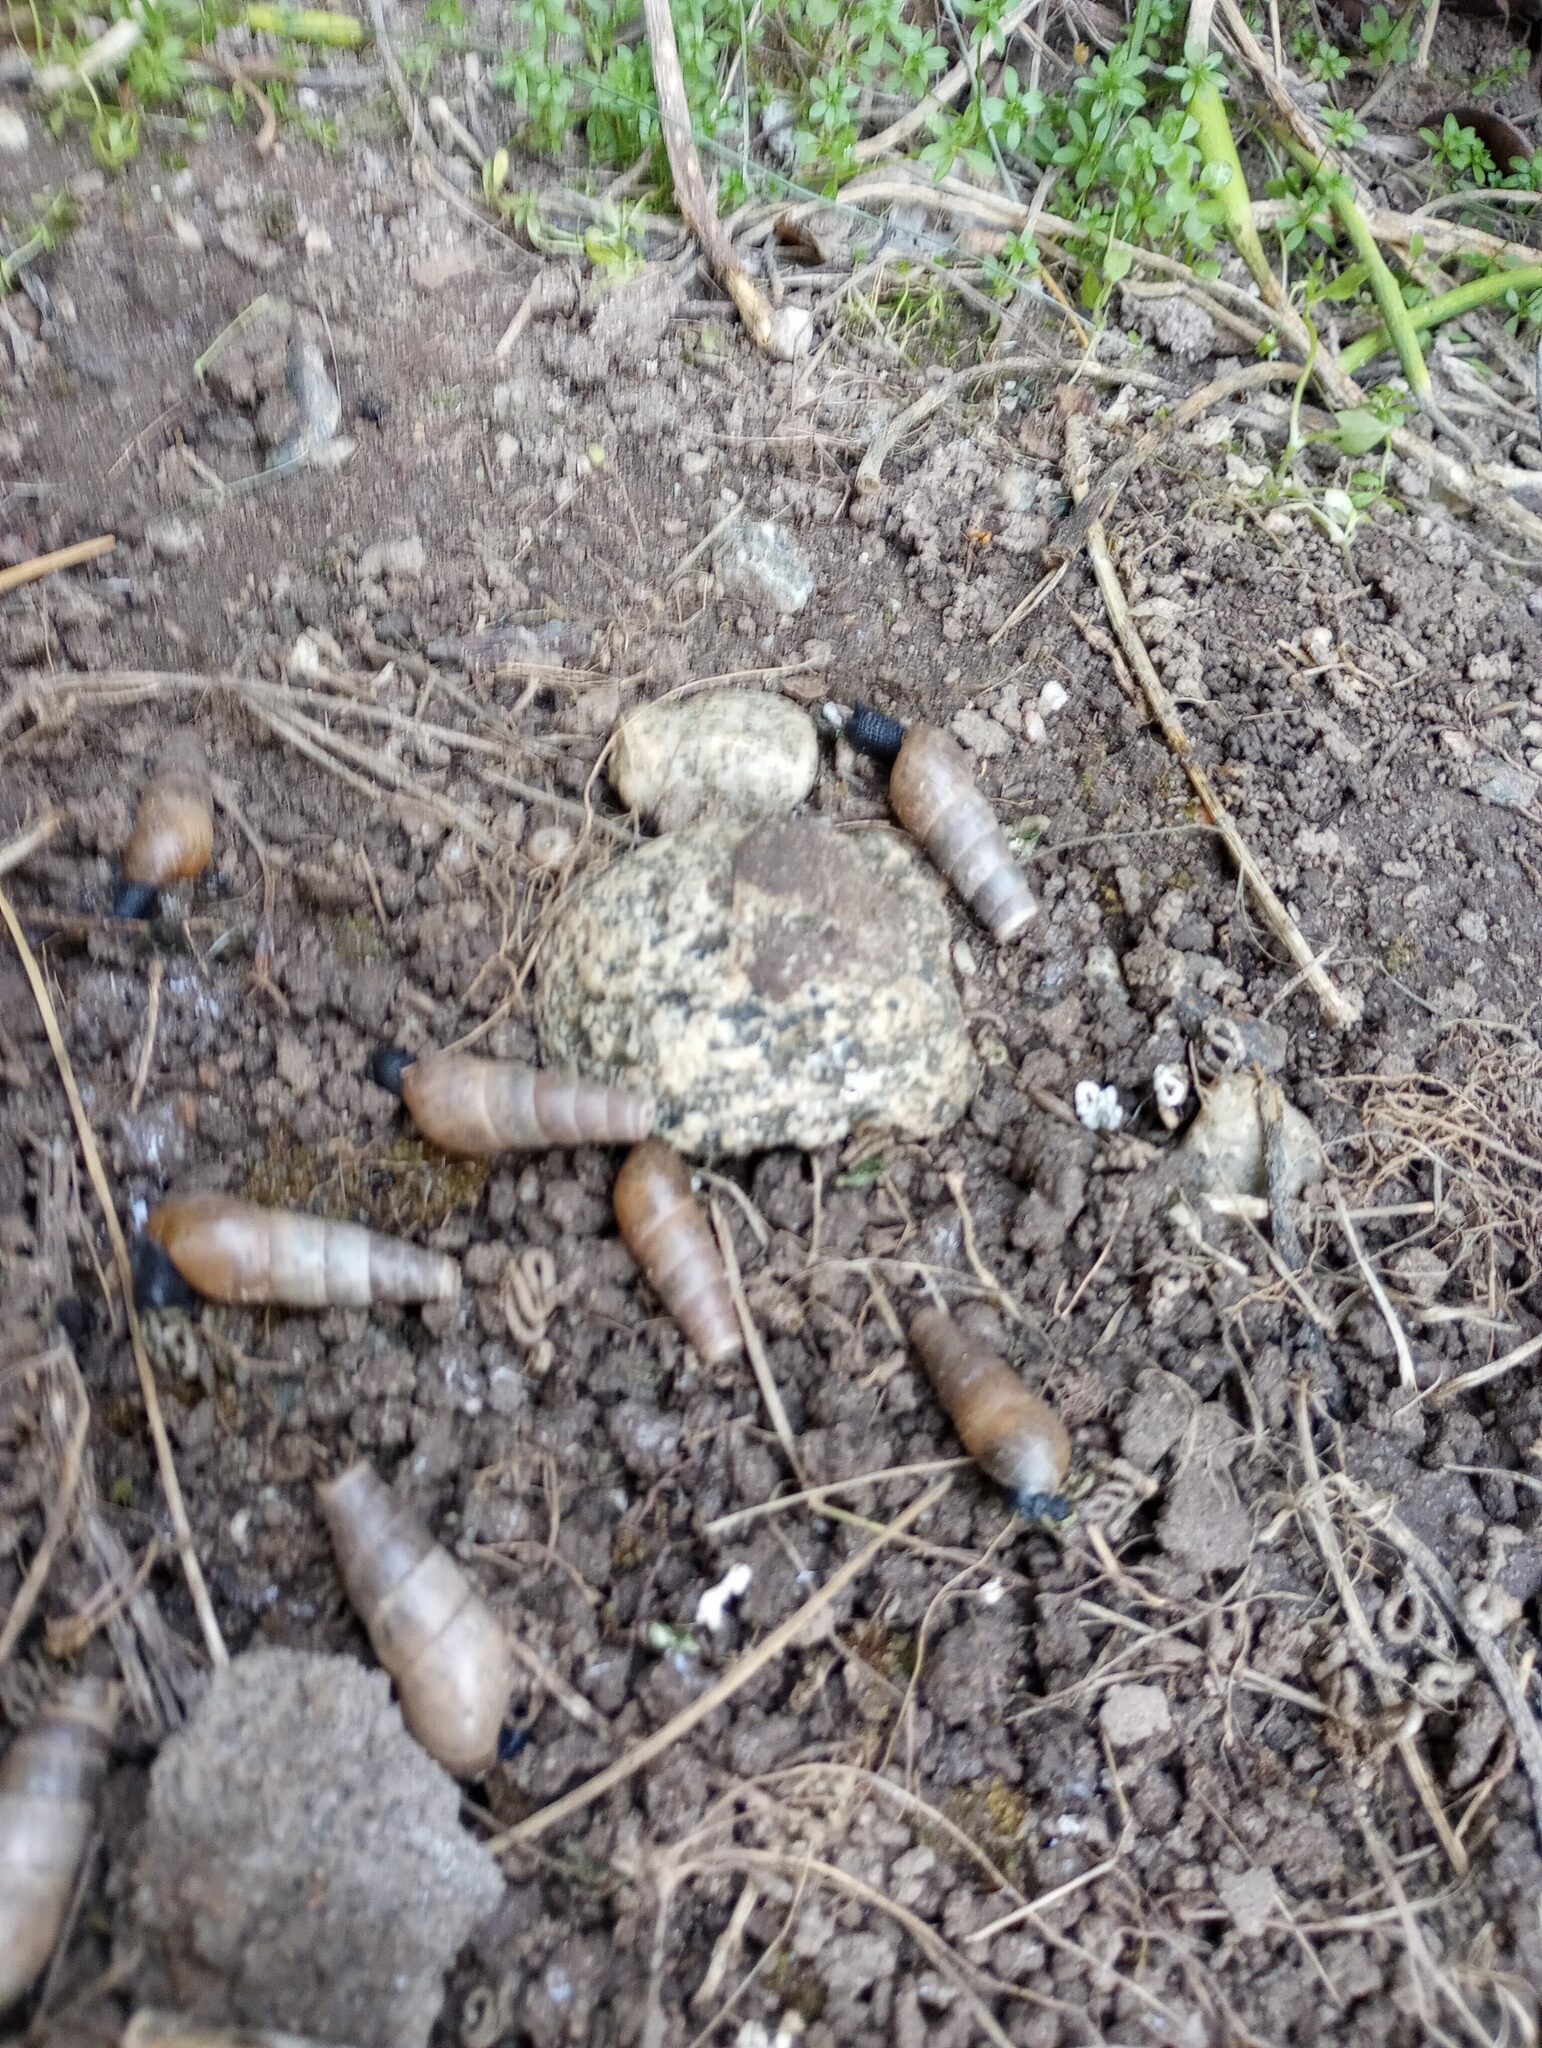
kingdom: Animalia
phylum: Mollusca
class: Gastropoda
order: Stylommatophora
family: Achatinidae
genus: Rumina
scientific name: Rumina decollata
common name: Decollate snail
